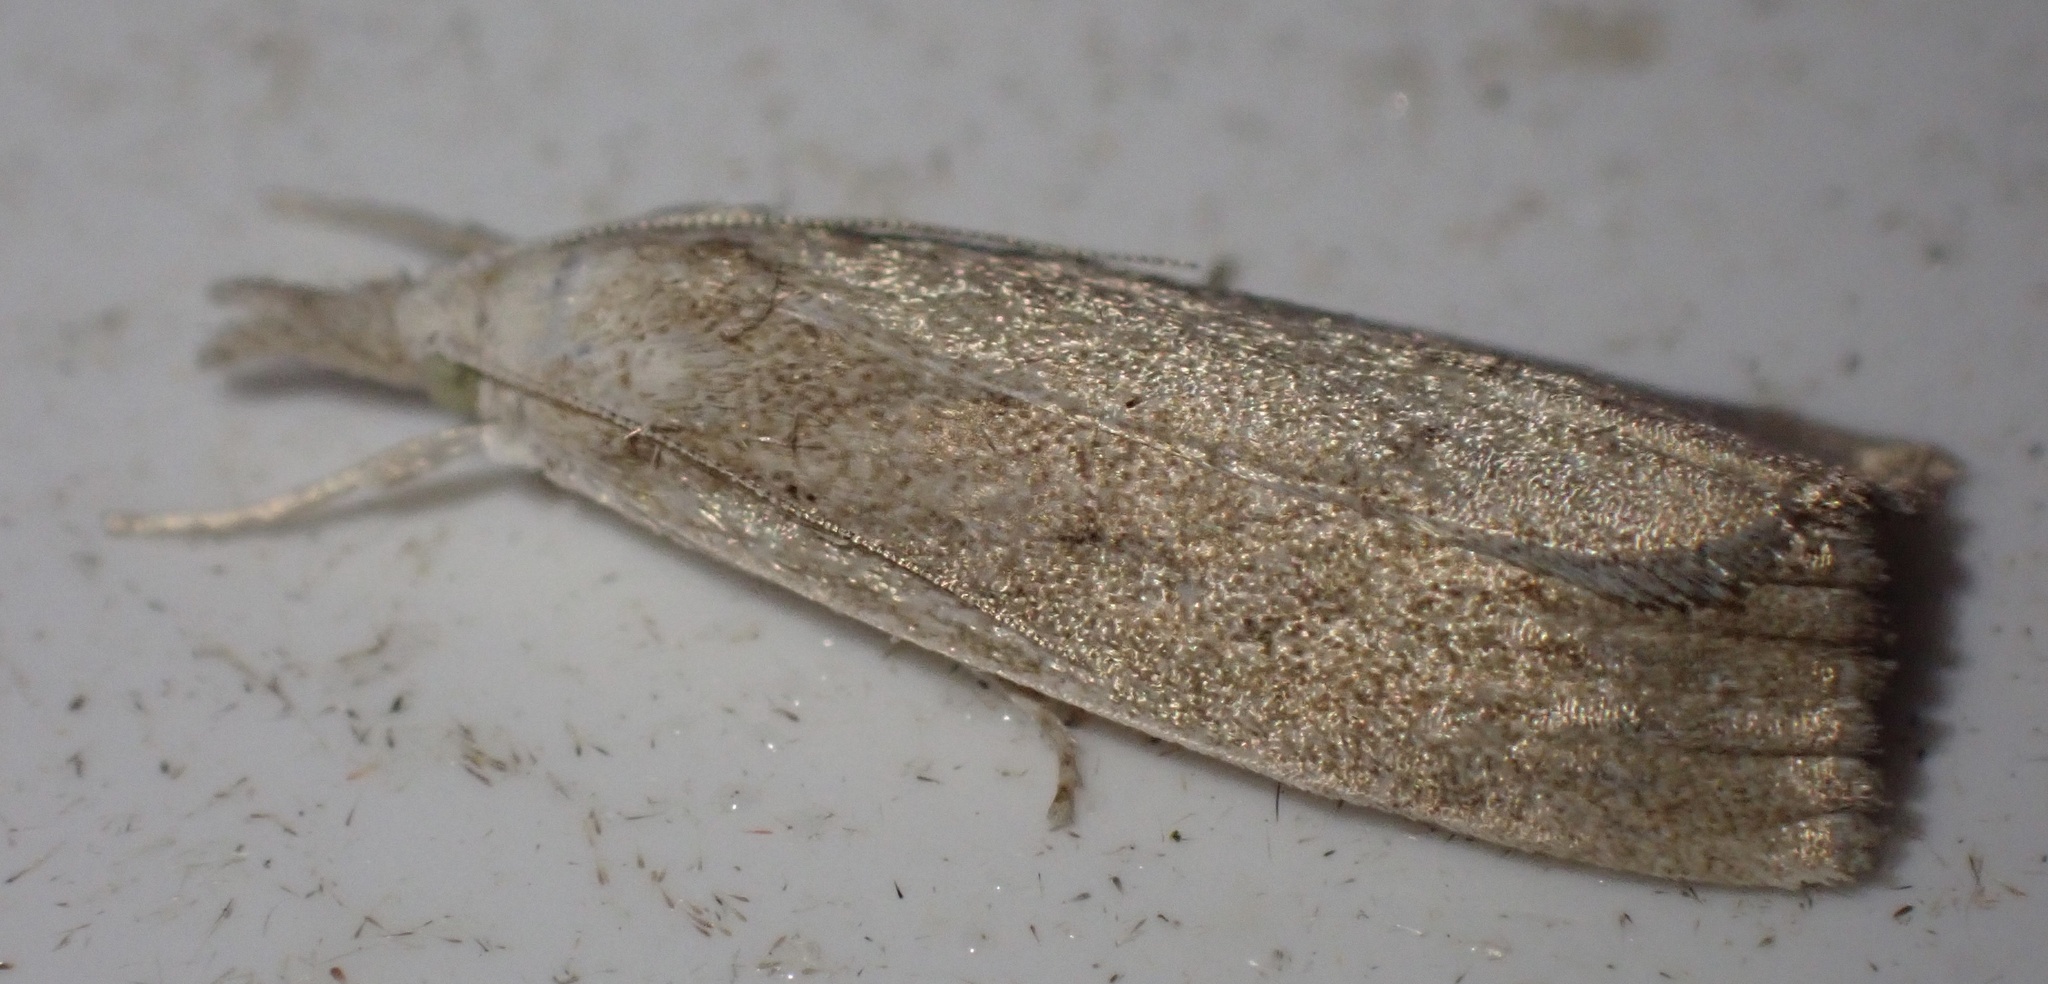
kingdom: Animalia
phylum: Arthropoda
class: Insecta
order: Lepidoptera
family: Crambidae
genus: Calamotropha
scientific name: Calamotropha paludella
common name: Bulrush veneer
